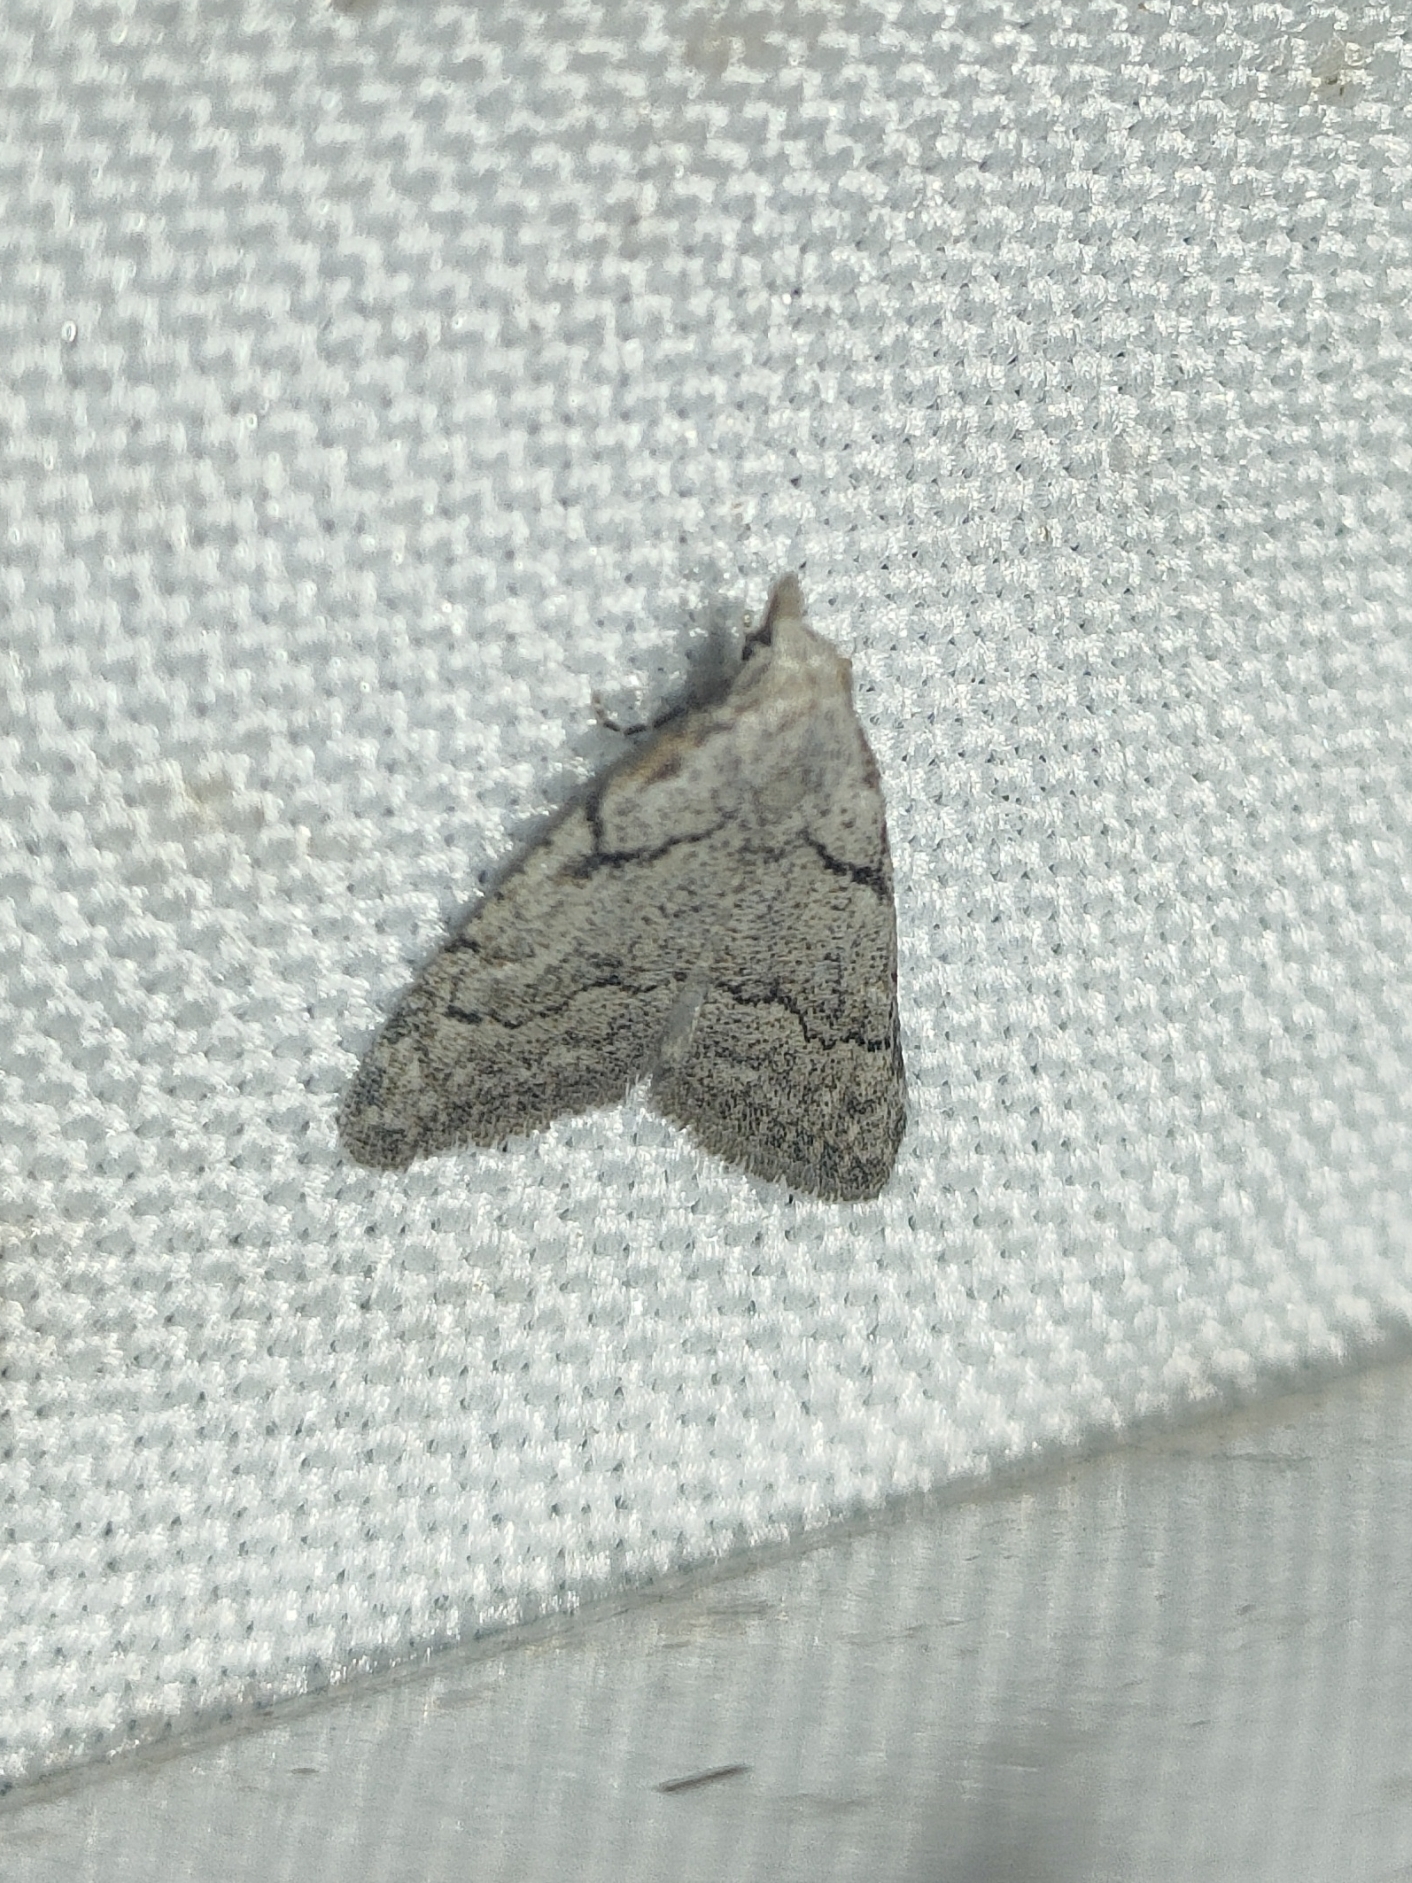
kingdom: Animalia
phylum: Arthropoda
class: Insecta
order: Lepidoptera
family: Nolidae
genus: Nola
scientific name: Nola thymula
